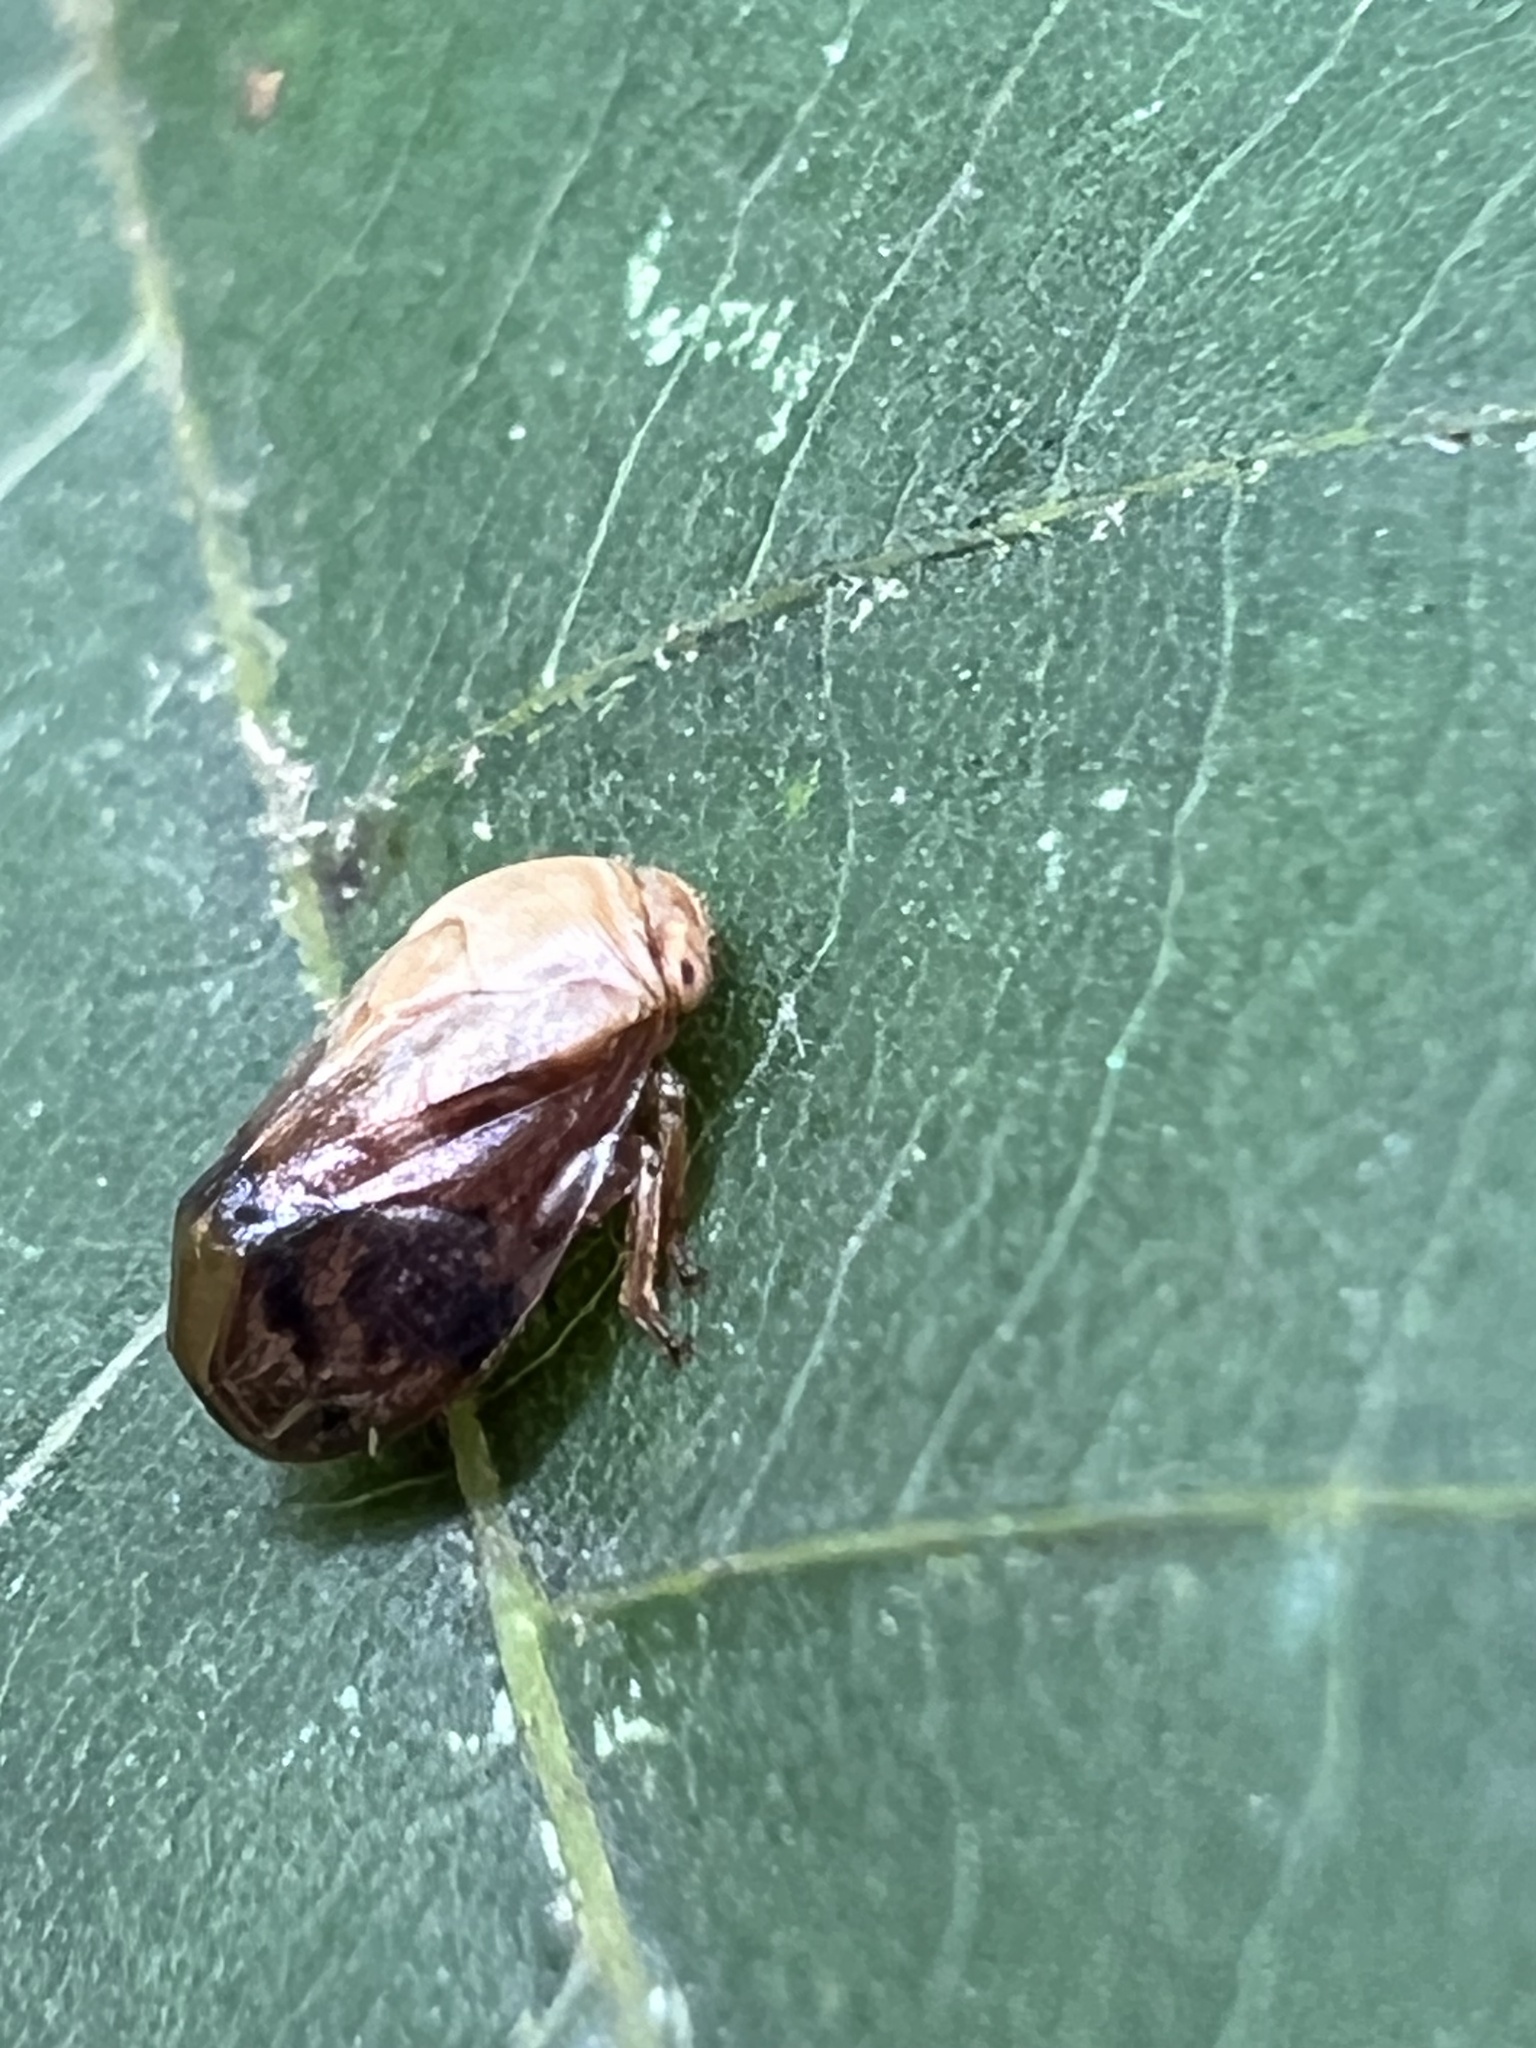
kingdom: Animalia
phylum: Arthropoda
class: Insecta
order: Hemiptera
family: Clastopteridae
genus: Clastoptera
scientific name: Clastoptera achatina
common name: Pecan spittlebug
